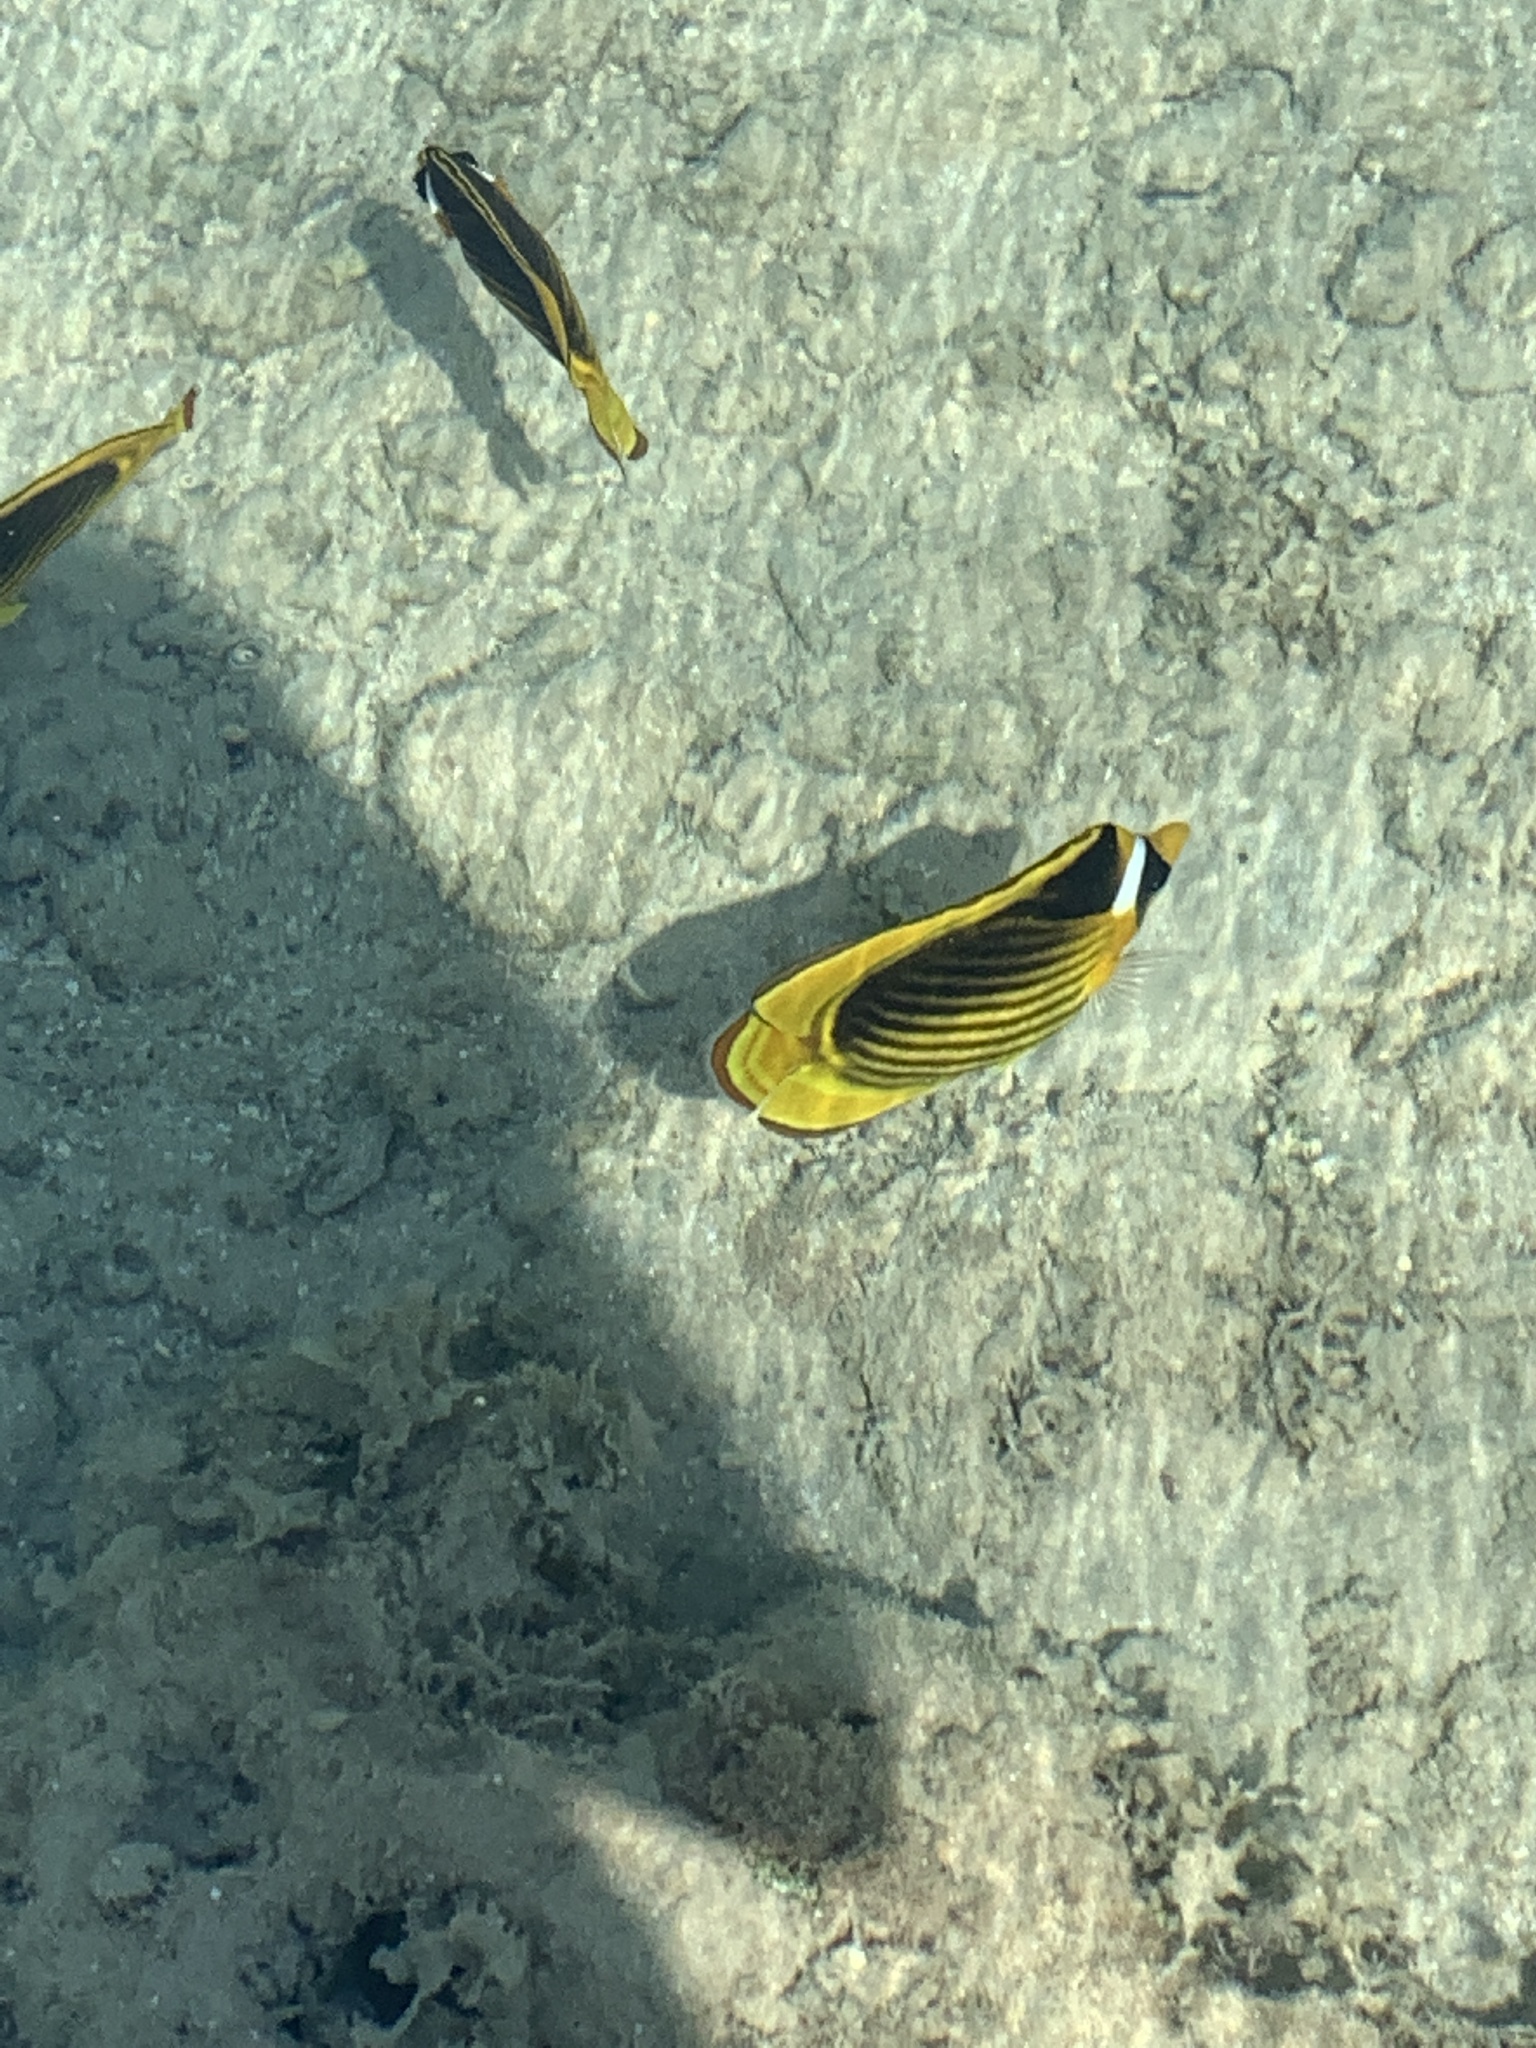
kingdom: Animalia
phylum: Chordata
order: Perciformes
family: Chaetodontidae
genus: Chaetodon
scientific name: Chaetodon fasciatus
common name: Diagonal butterflyfish
